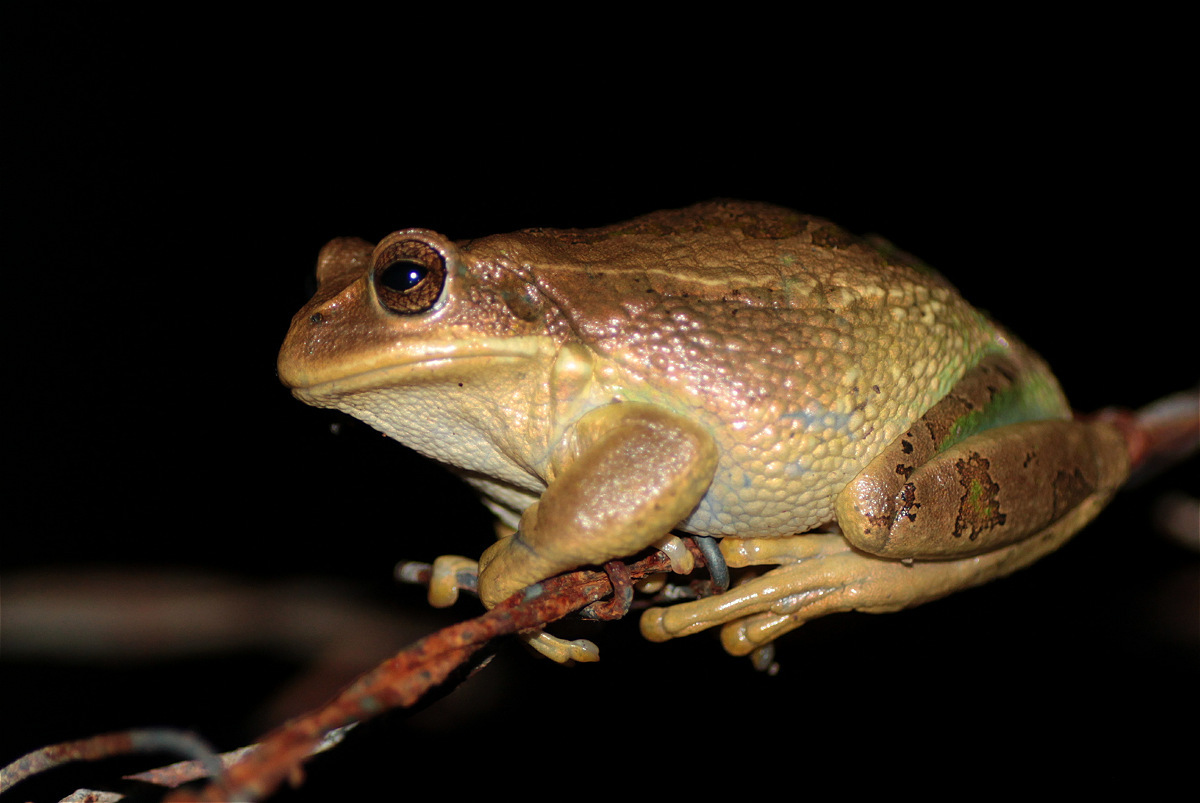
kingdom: Animalia
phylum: Chordata
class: Amphibia
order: Anura
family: Hemiphractidae
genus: Gastrotheca
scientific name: Gastrotheca cuencana
